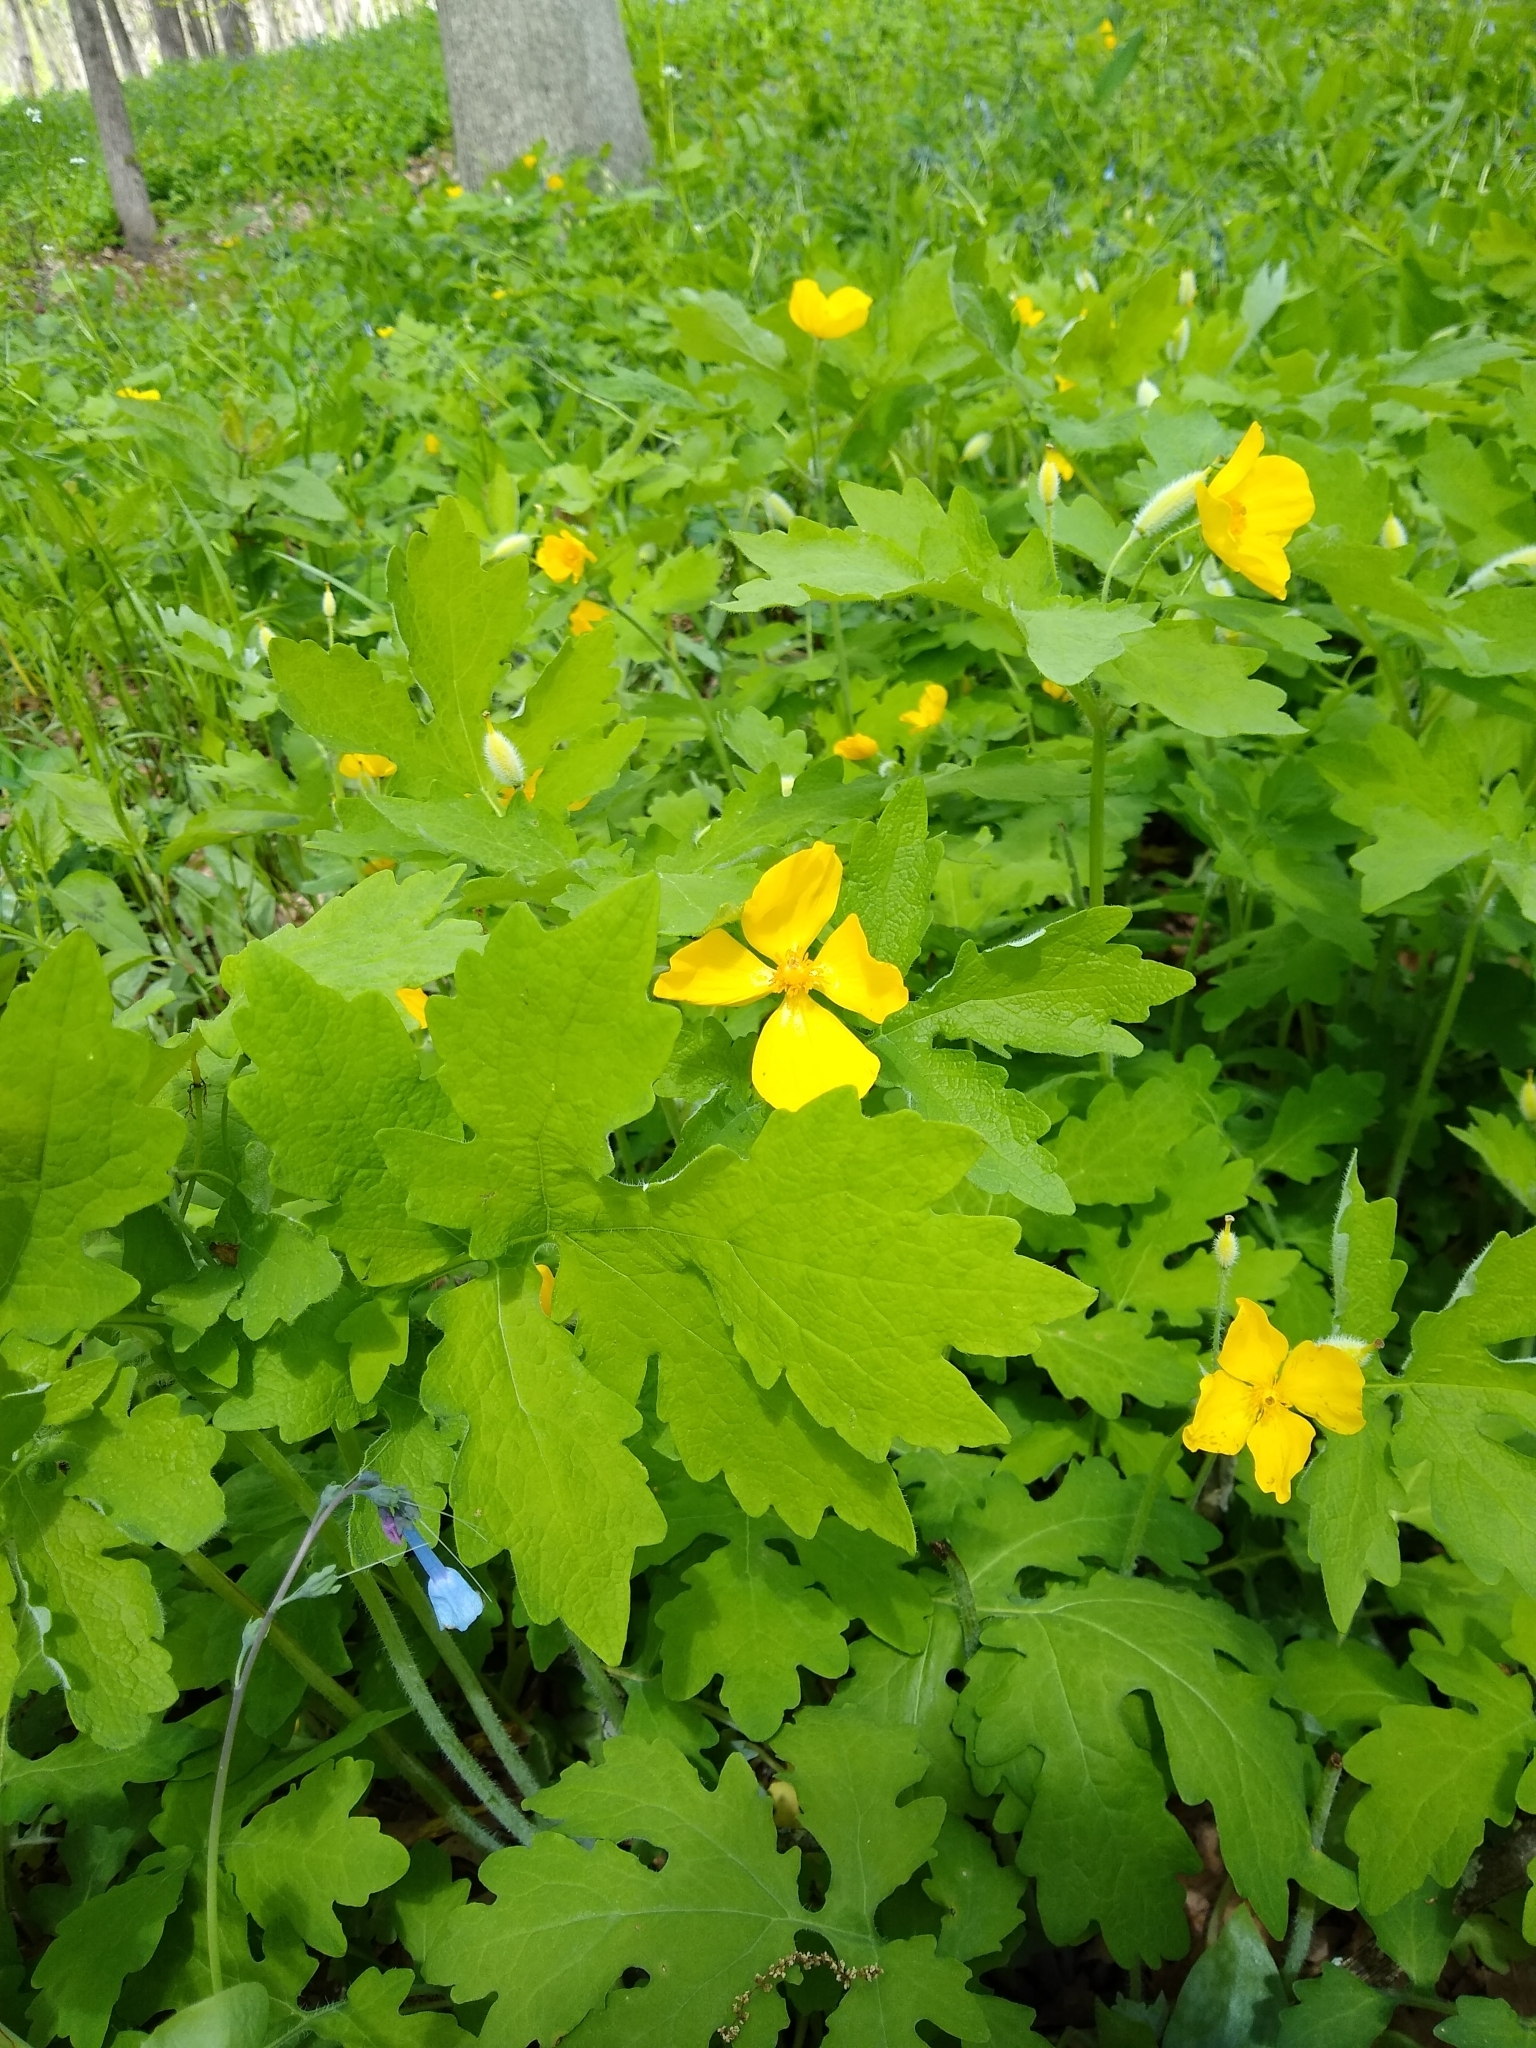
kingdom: Plantae
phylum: Tracheophyta
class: Magnoliopsida
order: Ranunculales
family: Papaveraceae
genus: Stylophorum
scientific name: Stylophorum diphyllum
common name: Celandine poppy
